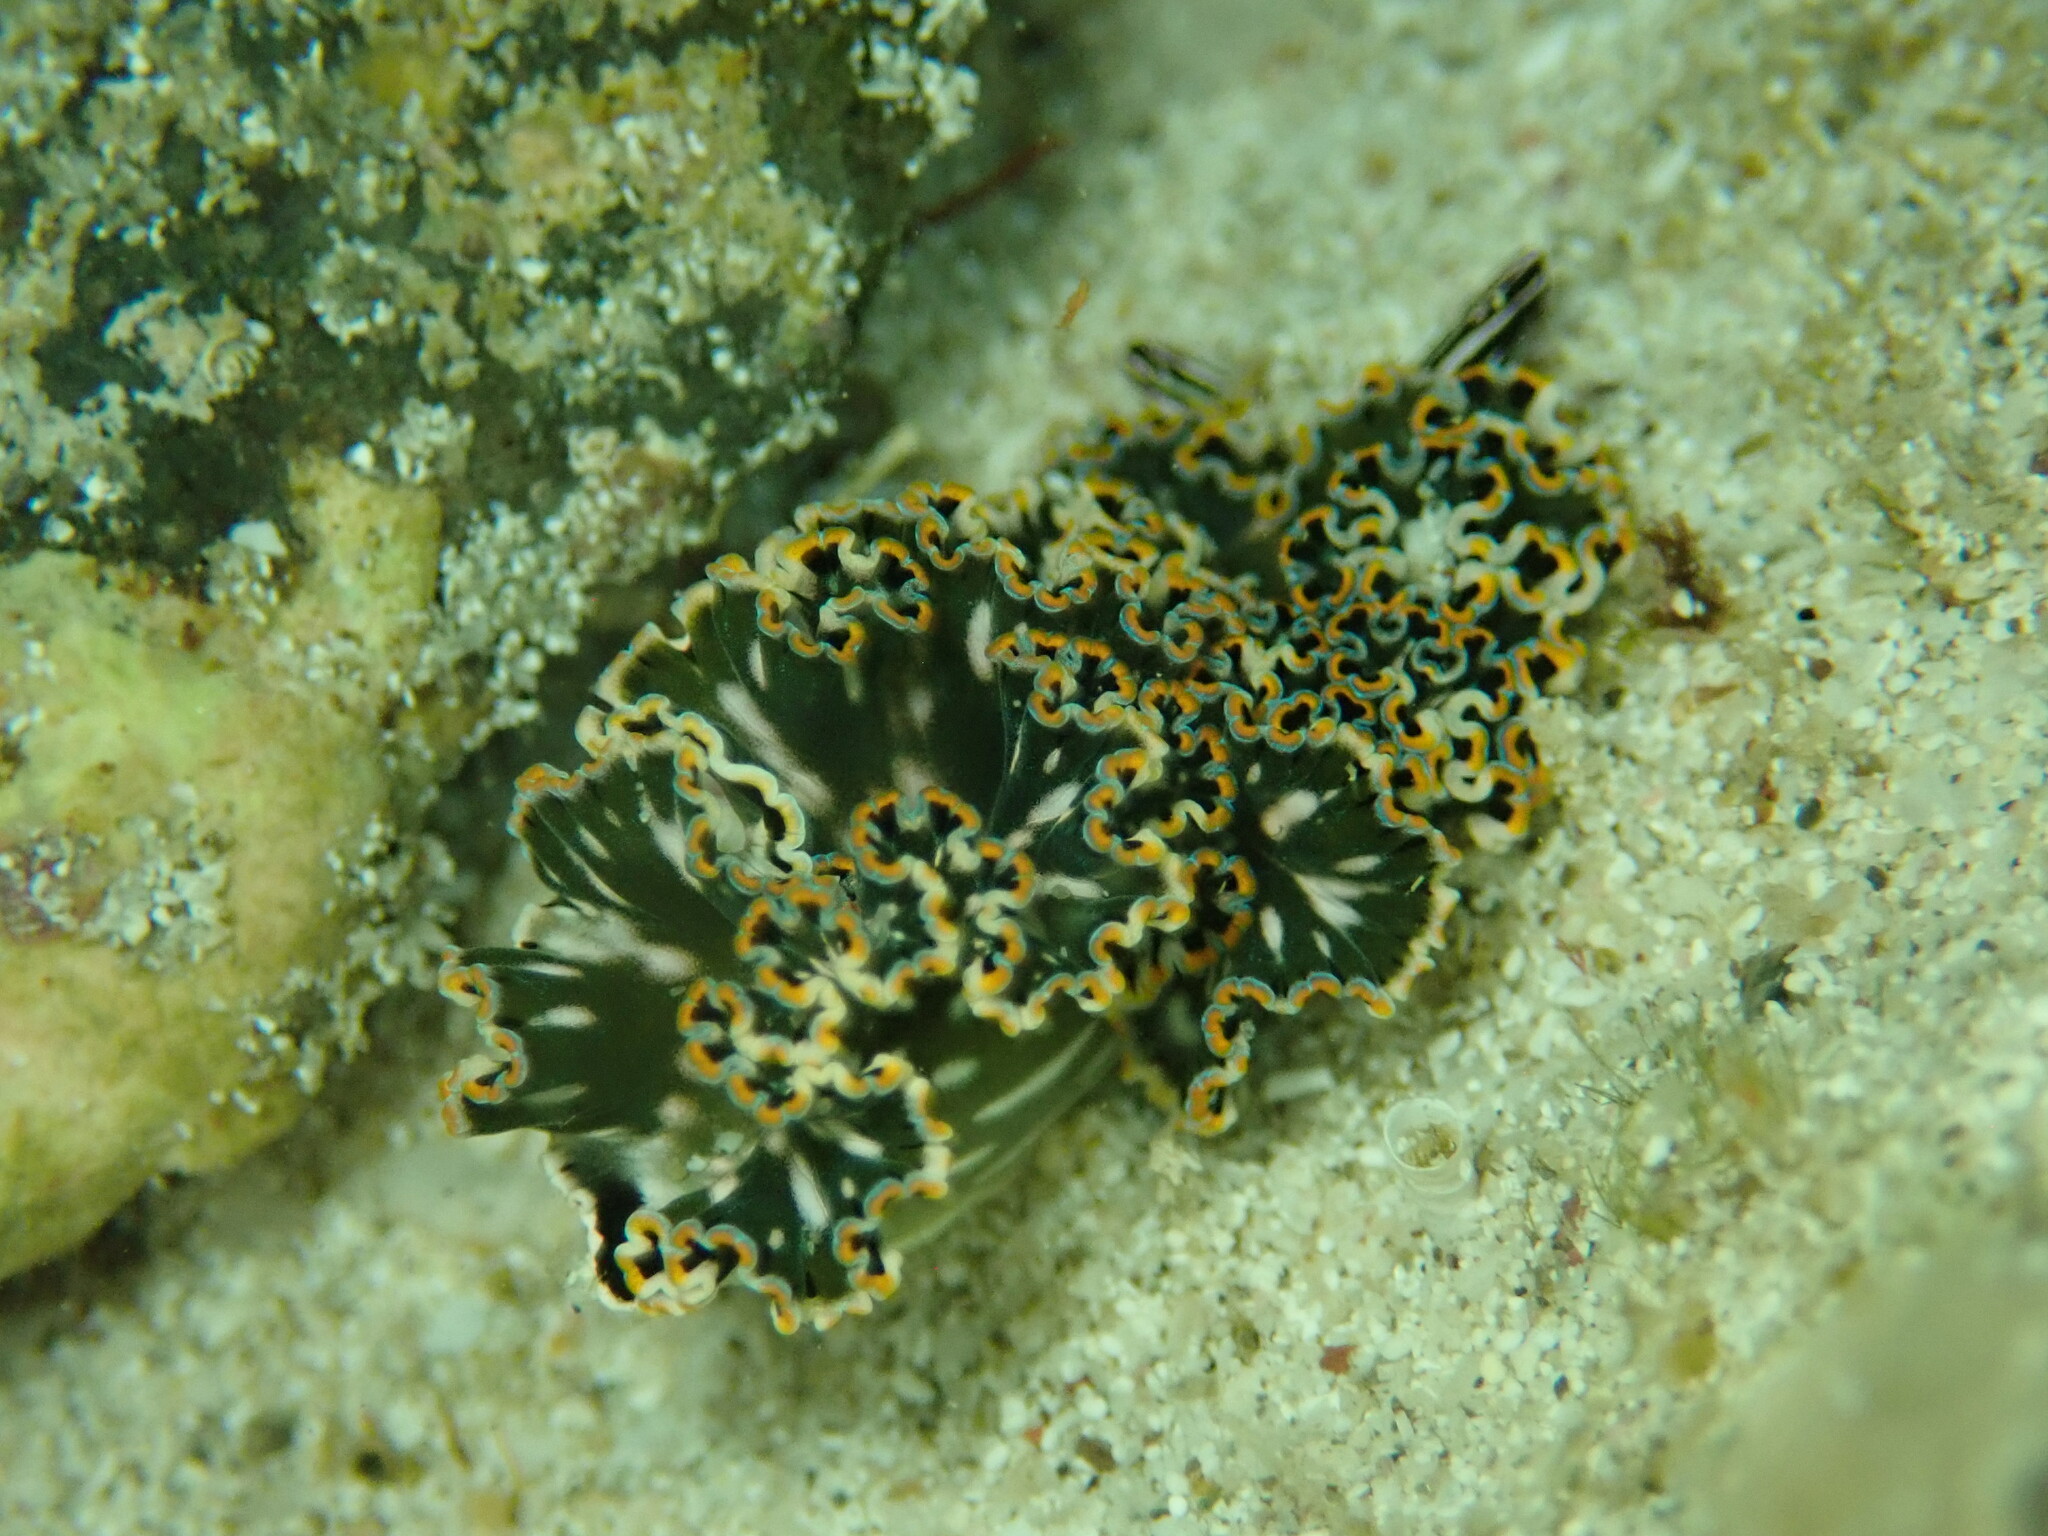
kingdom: Animalia
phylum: Mollusca
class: Gastropoda
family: Plakobranchidae
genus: Elysia
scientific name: Elysia diomedea
